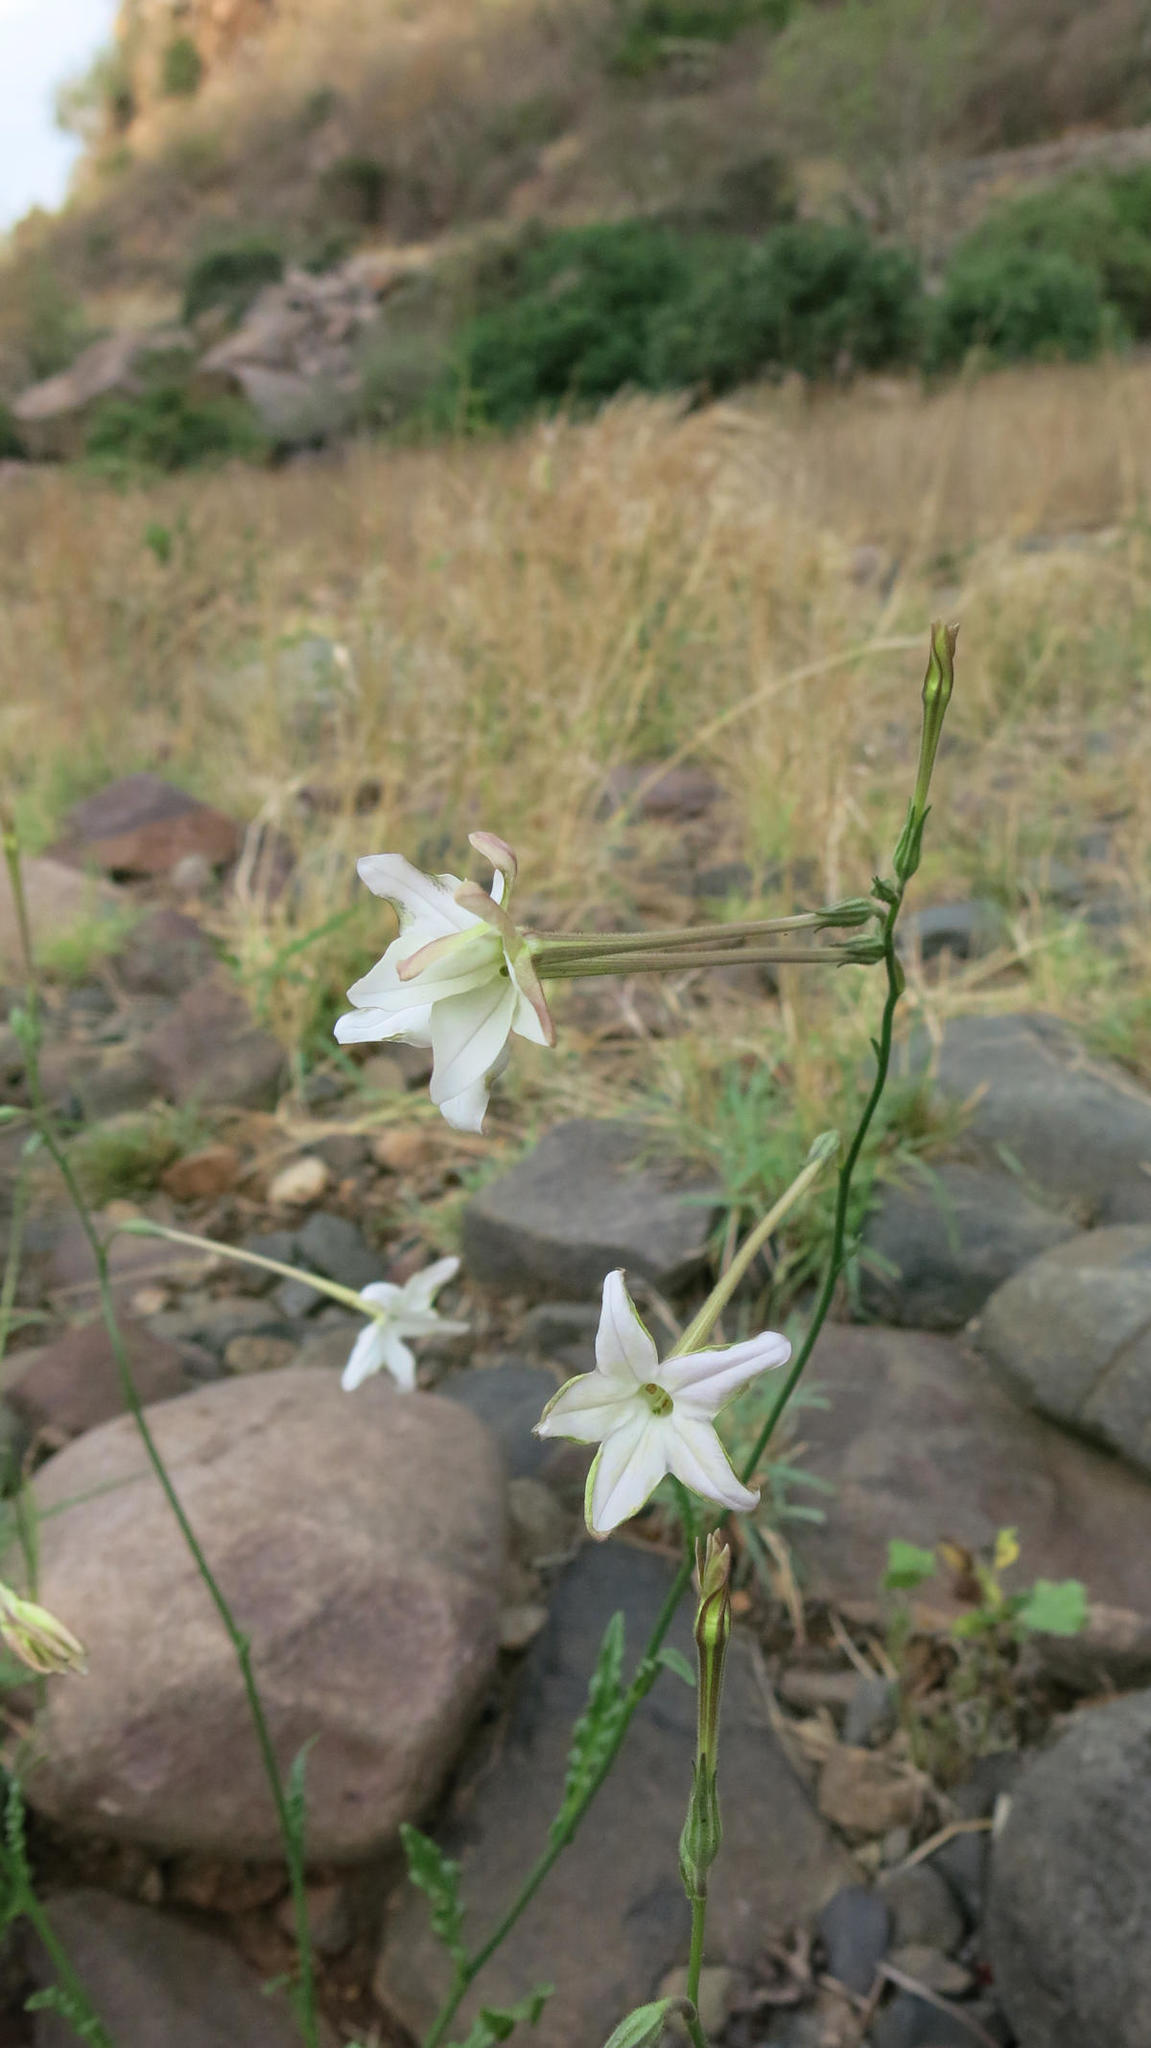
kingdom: Plantae
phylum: Tracheophyta
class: Magnoliopsida
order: Solanales
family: Solanaceae
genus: Nicotiana
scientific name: Nicotiana longiflora
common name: Long-flowered tobacco
